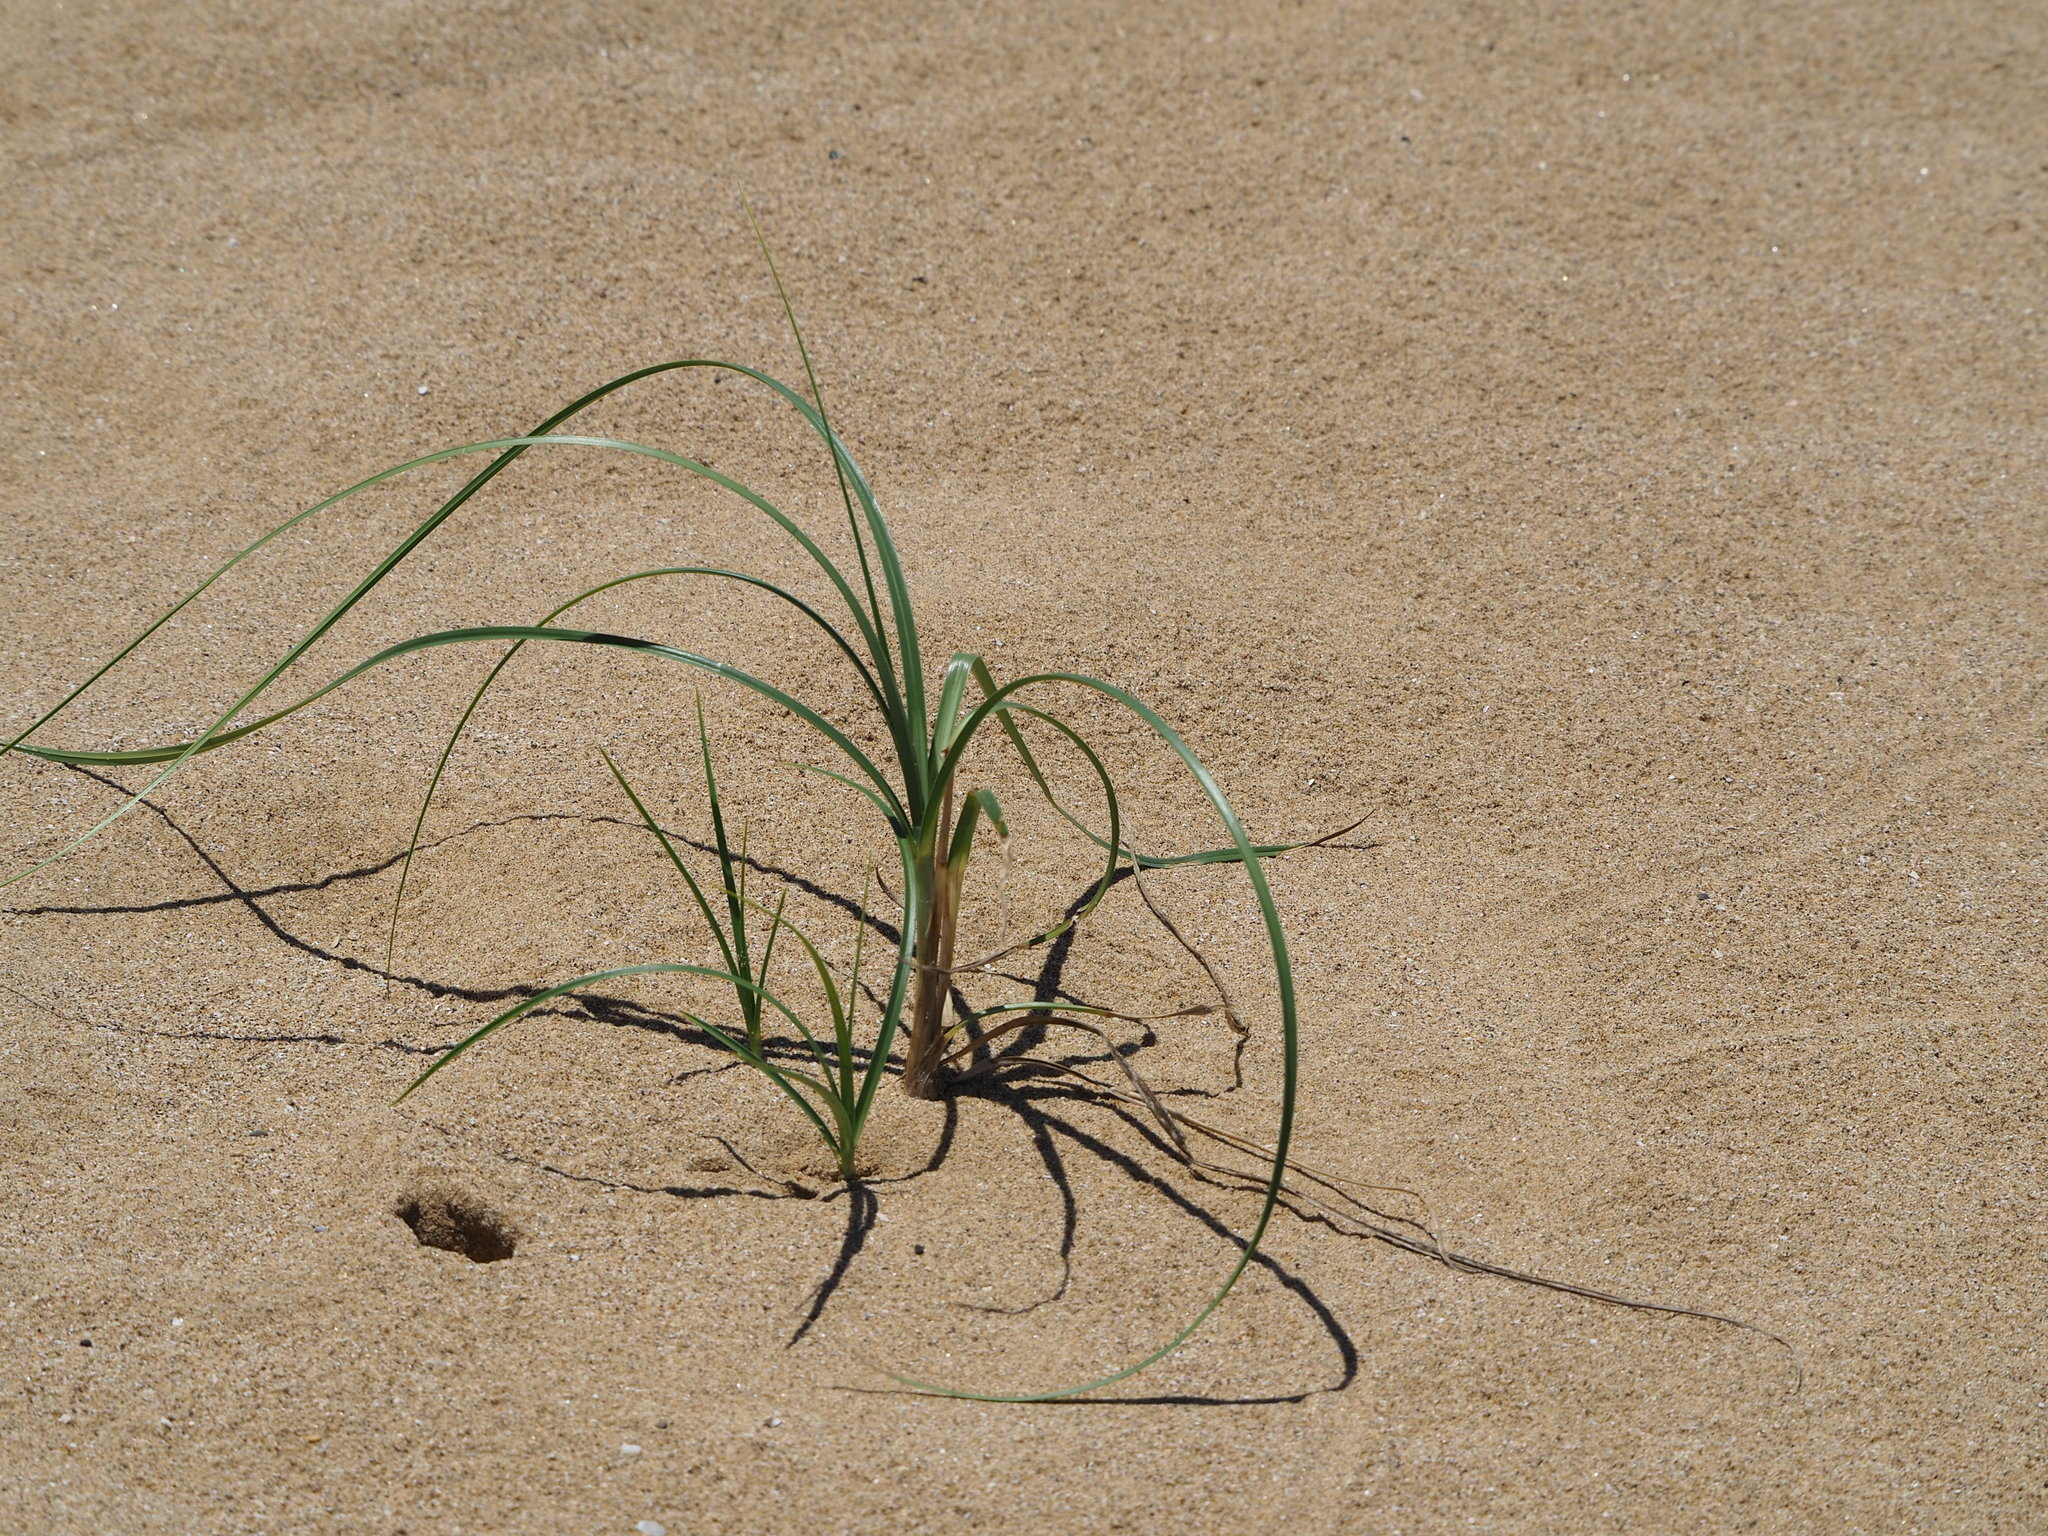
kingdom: Plantae
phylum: Tracheophyta
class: Liliopsida
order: Poales
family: Poaceae
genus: Spinifex
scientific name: Spinifex littoreus
